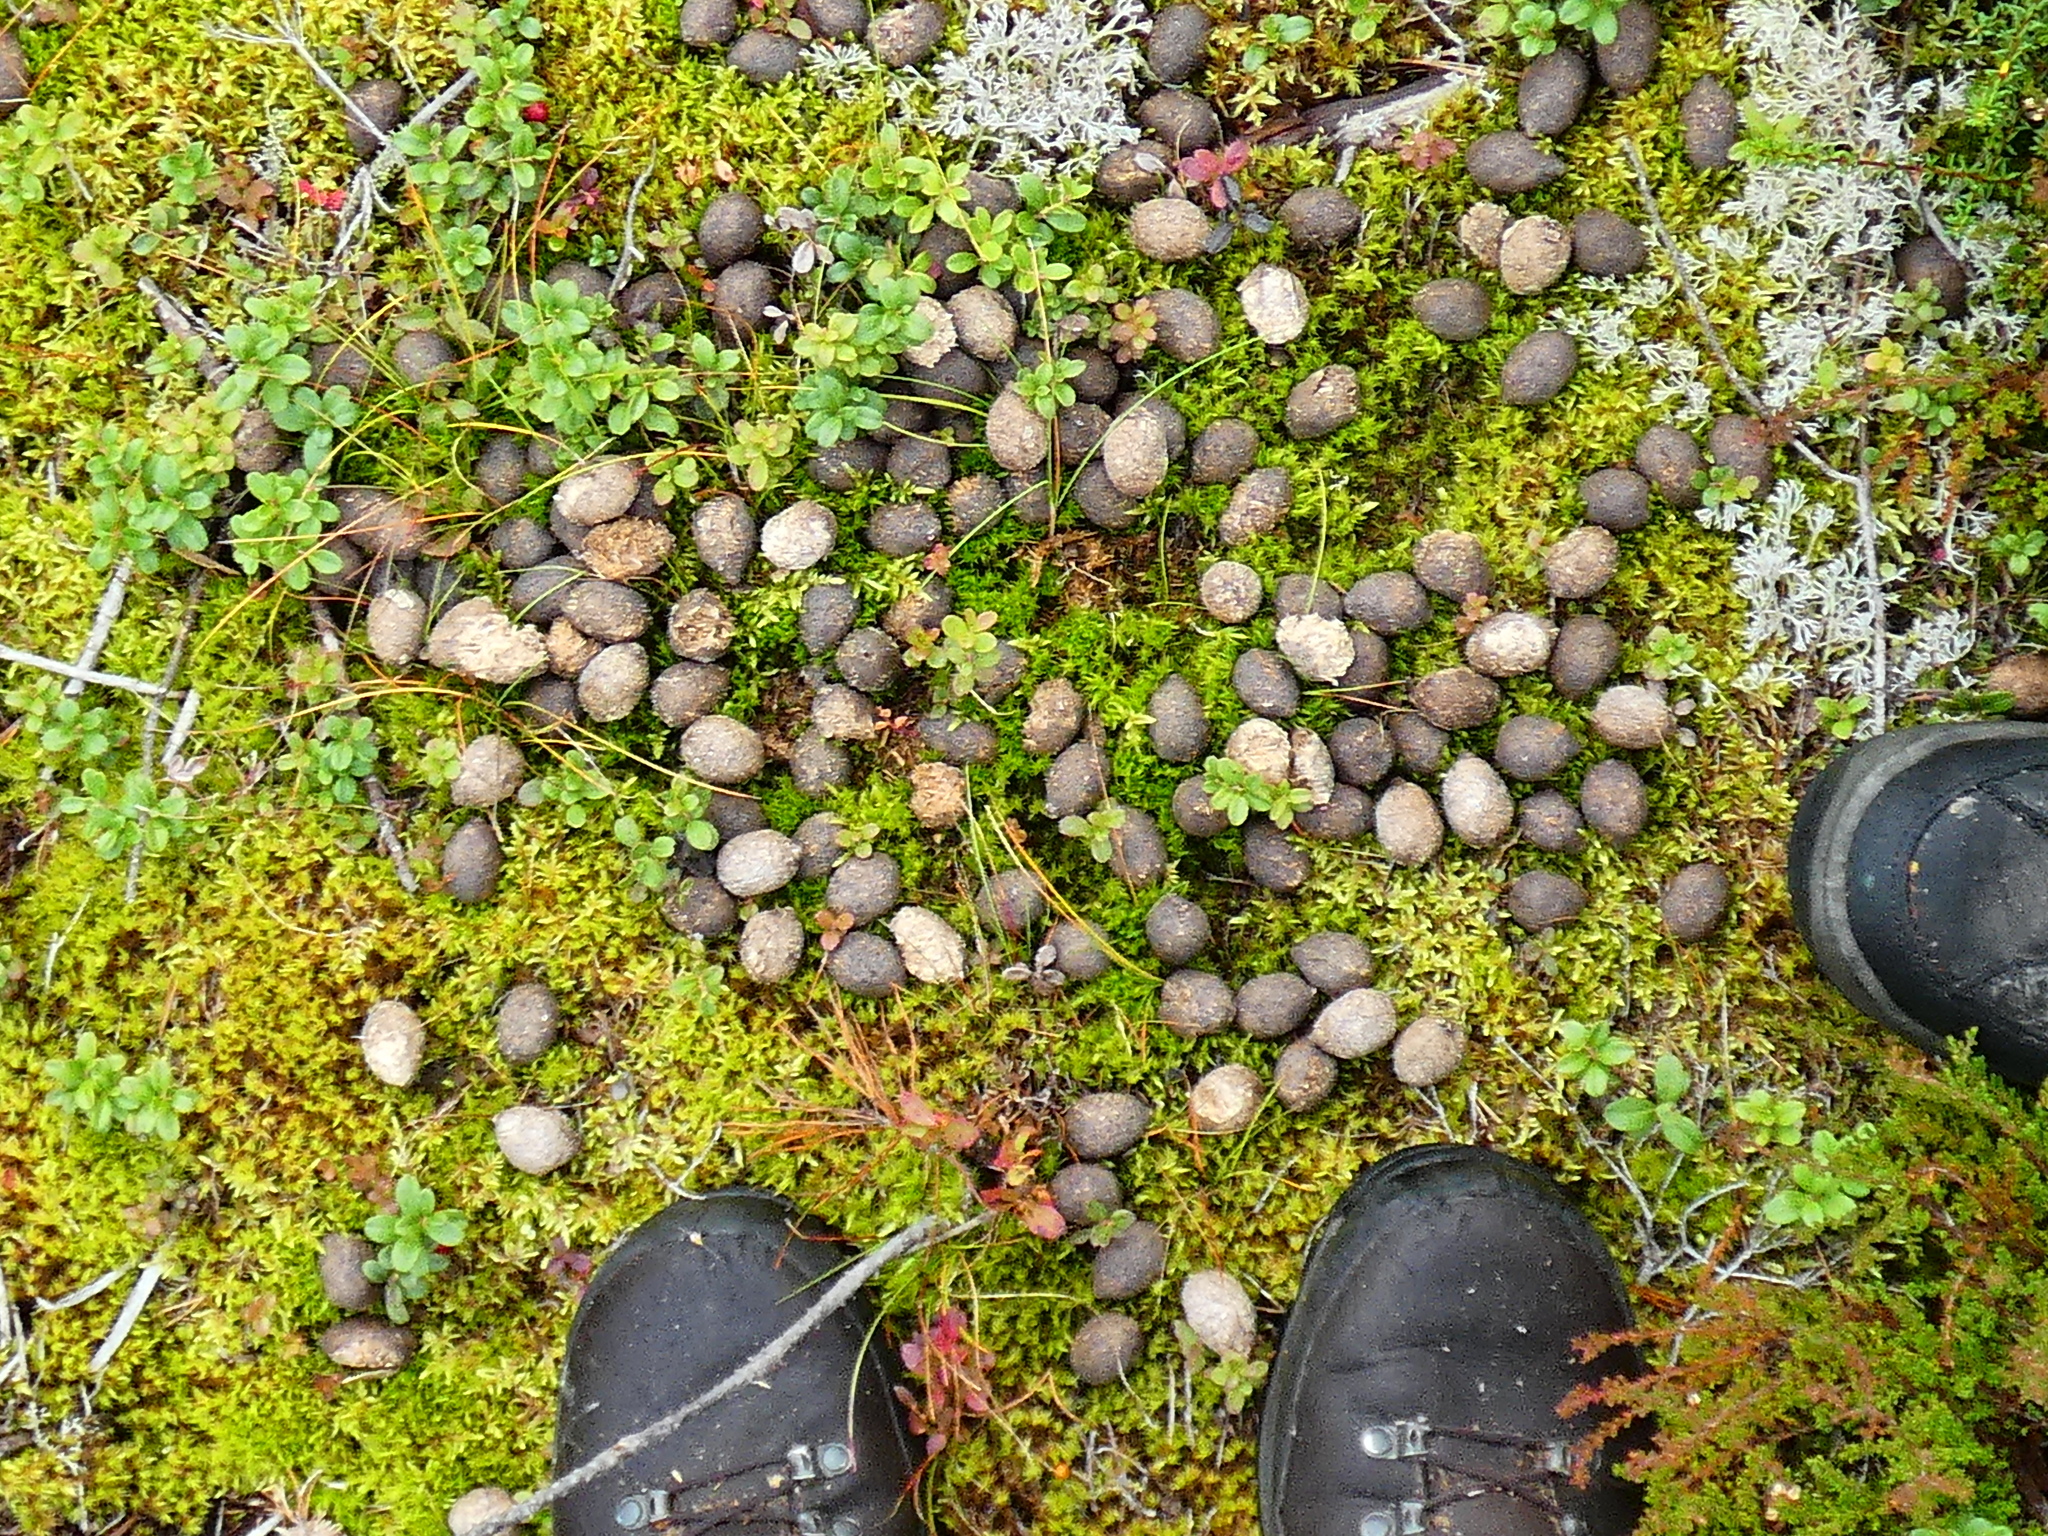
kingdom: Animalia
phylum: Chordata
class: Mammalia
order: Artiodactyla
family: Cervidae
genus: Alces
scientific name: Alces alces
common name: Moose
